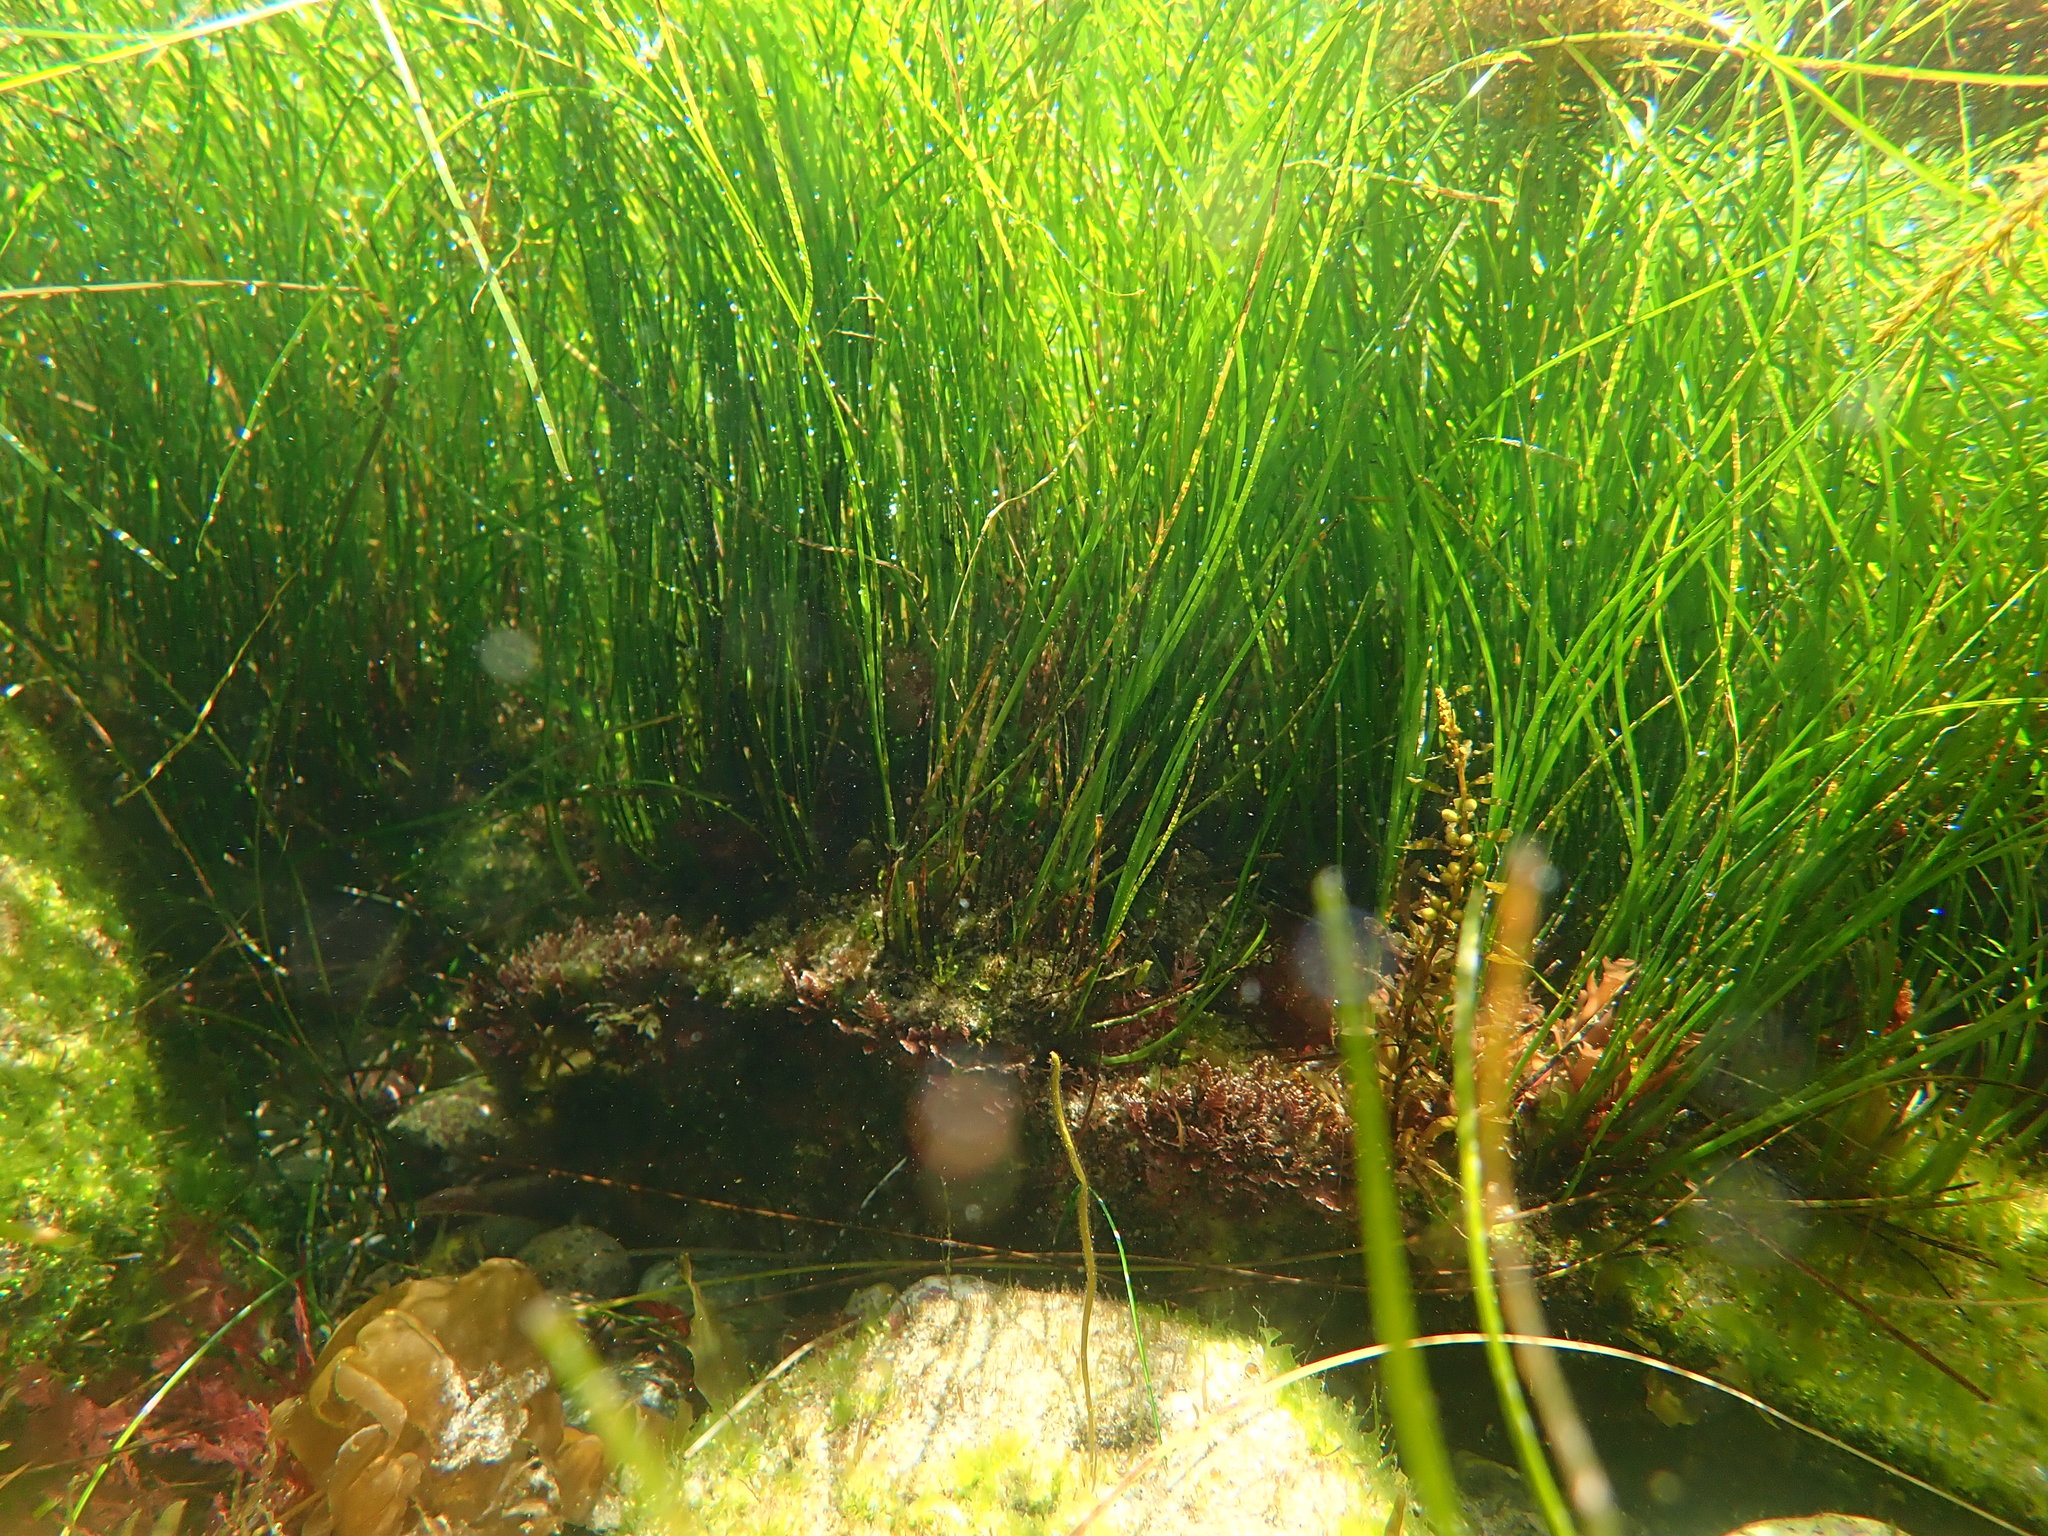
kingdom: Plantae
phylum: Tracheophyta
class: Liliopsida
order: Alismatales
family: Zosteraceae
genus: Phyllospadix
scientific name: Phyllospadix torreyi
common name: Surfgrass
